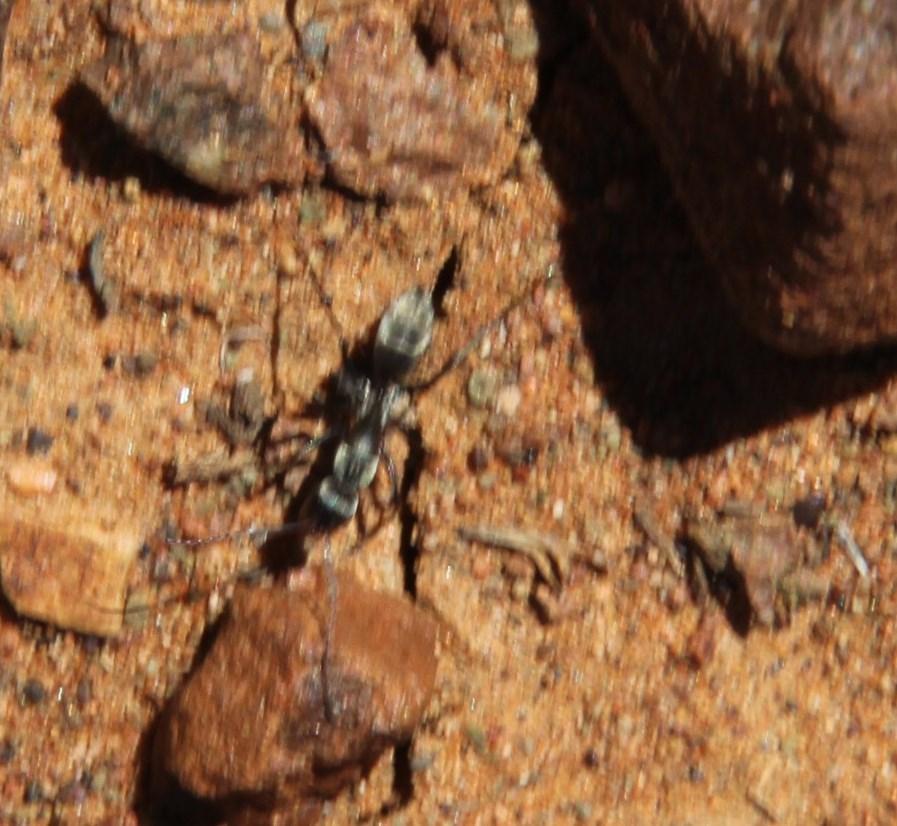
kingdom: Animalia
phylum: Arthropoda
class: Insecta
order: Hymenoptera
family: Formicidae
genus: Camponotus
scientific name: Camponotus vestitus
